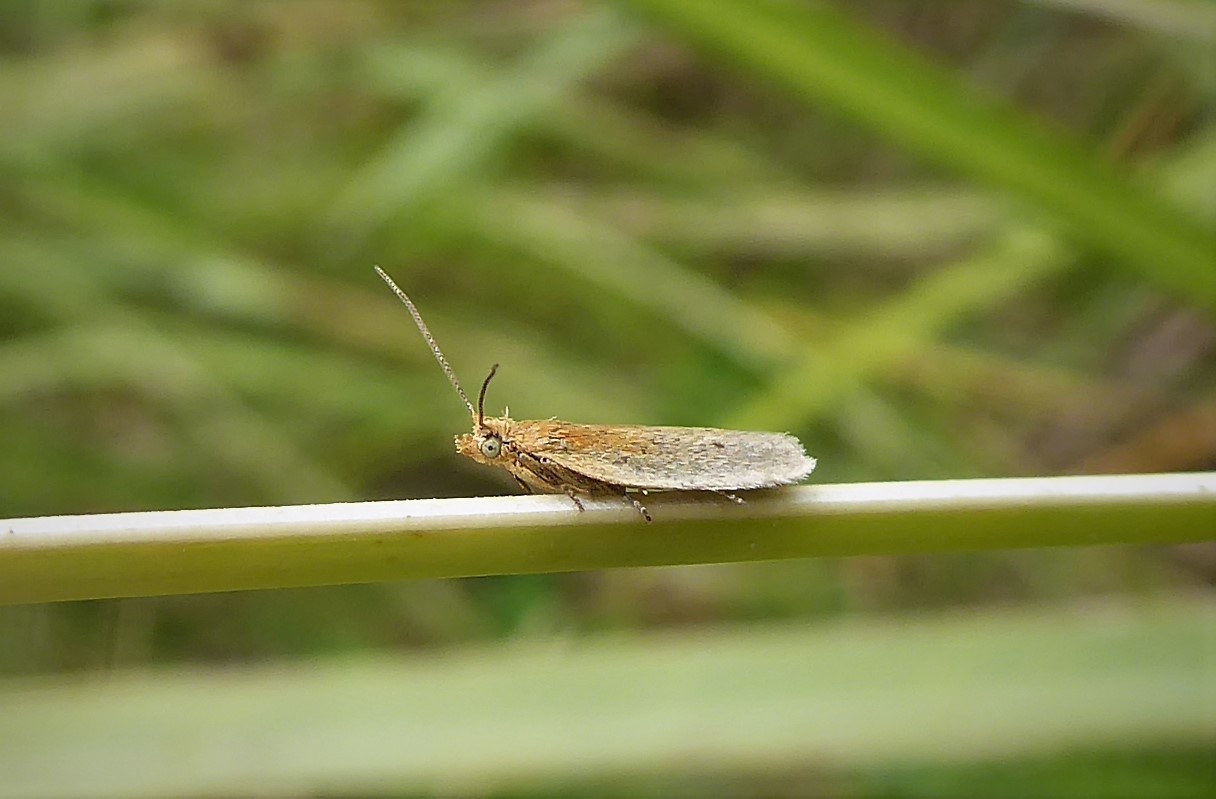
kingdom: Animalia
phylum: Arthropoda
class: Insecta
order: Lepidoptera
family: Tortricidae
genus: Epichorista
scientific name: Epichorista siriana
